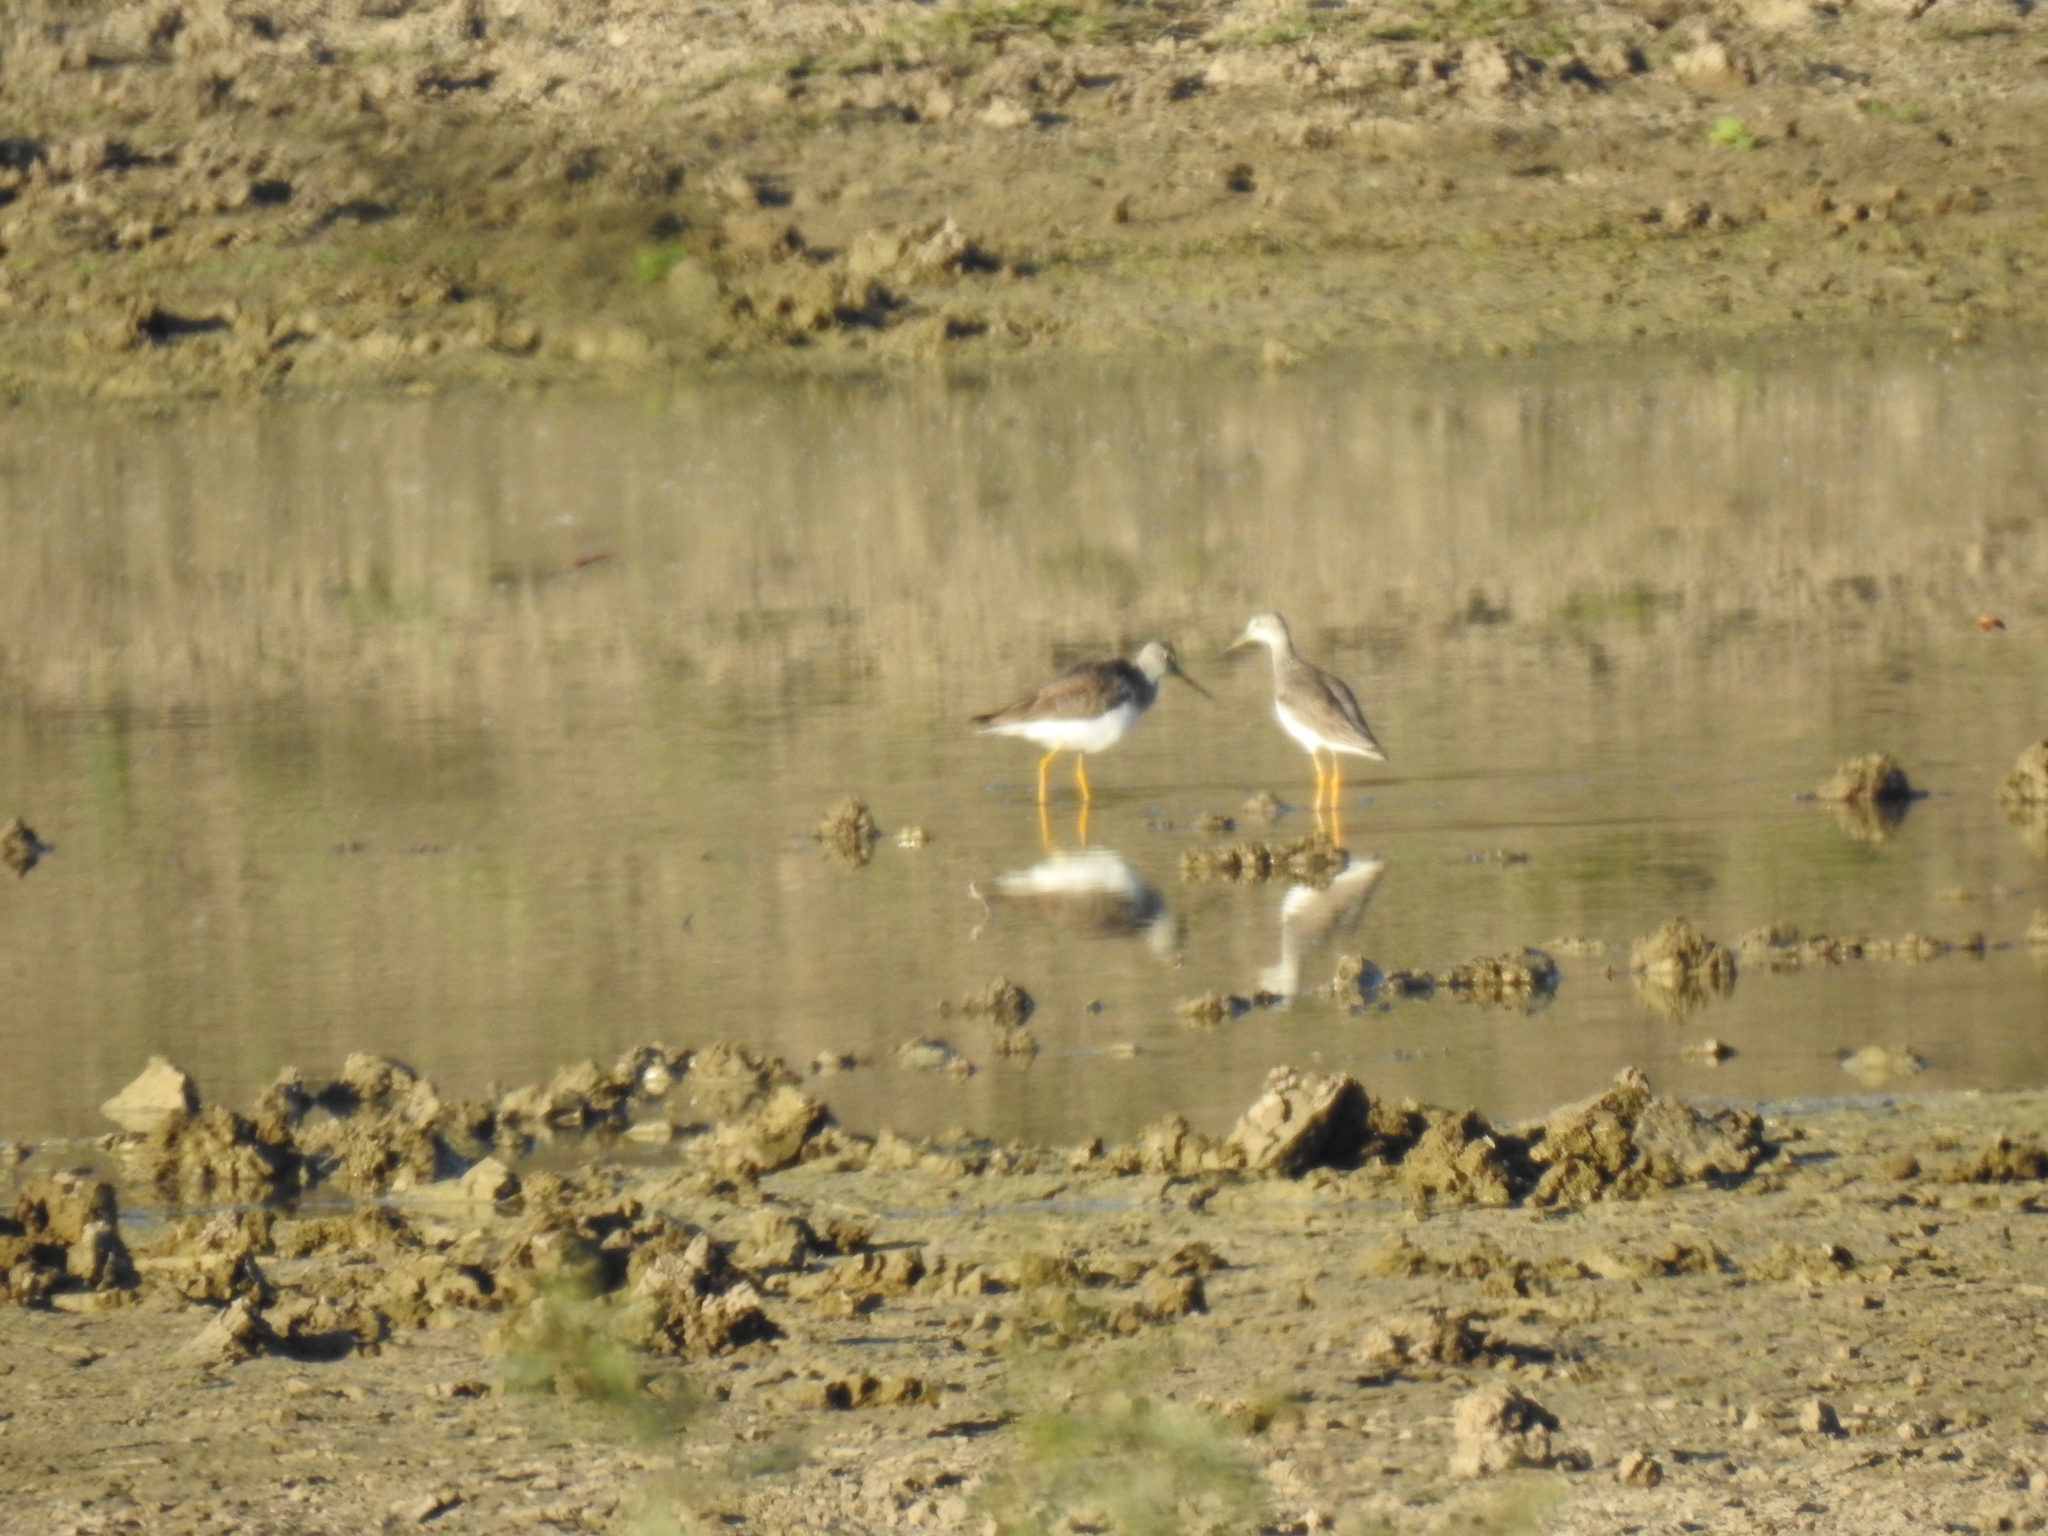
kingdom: Animalia
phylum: Chordata
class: Aves
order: Charadriiformes
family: Scolopacidae
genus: Tringa
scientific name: Tringa melanoleuca
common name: Greater yellowlegs
